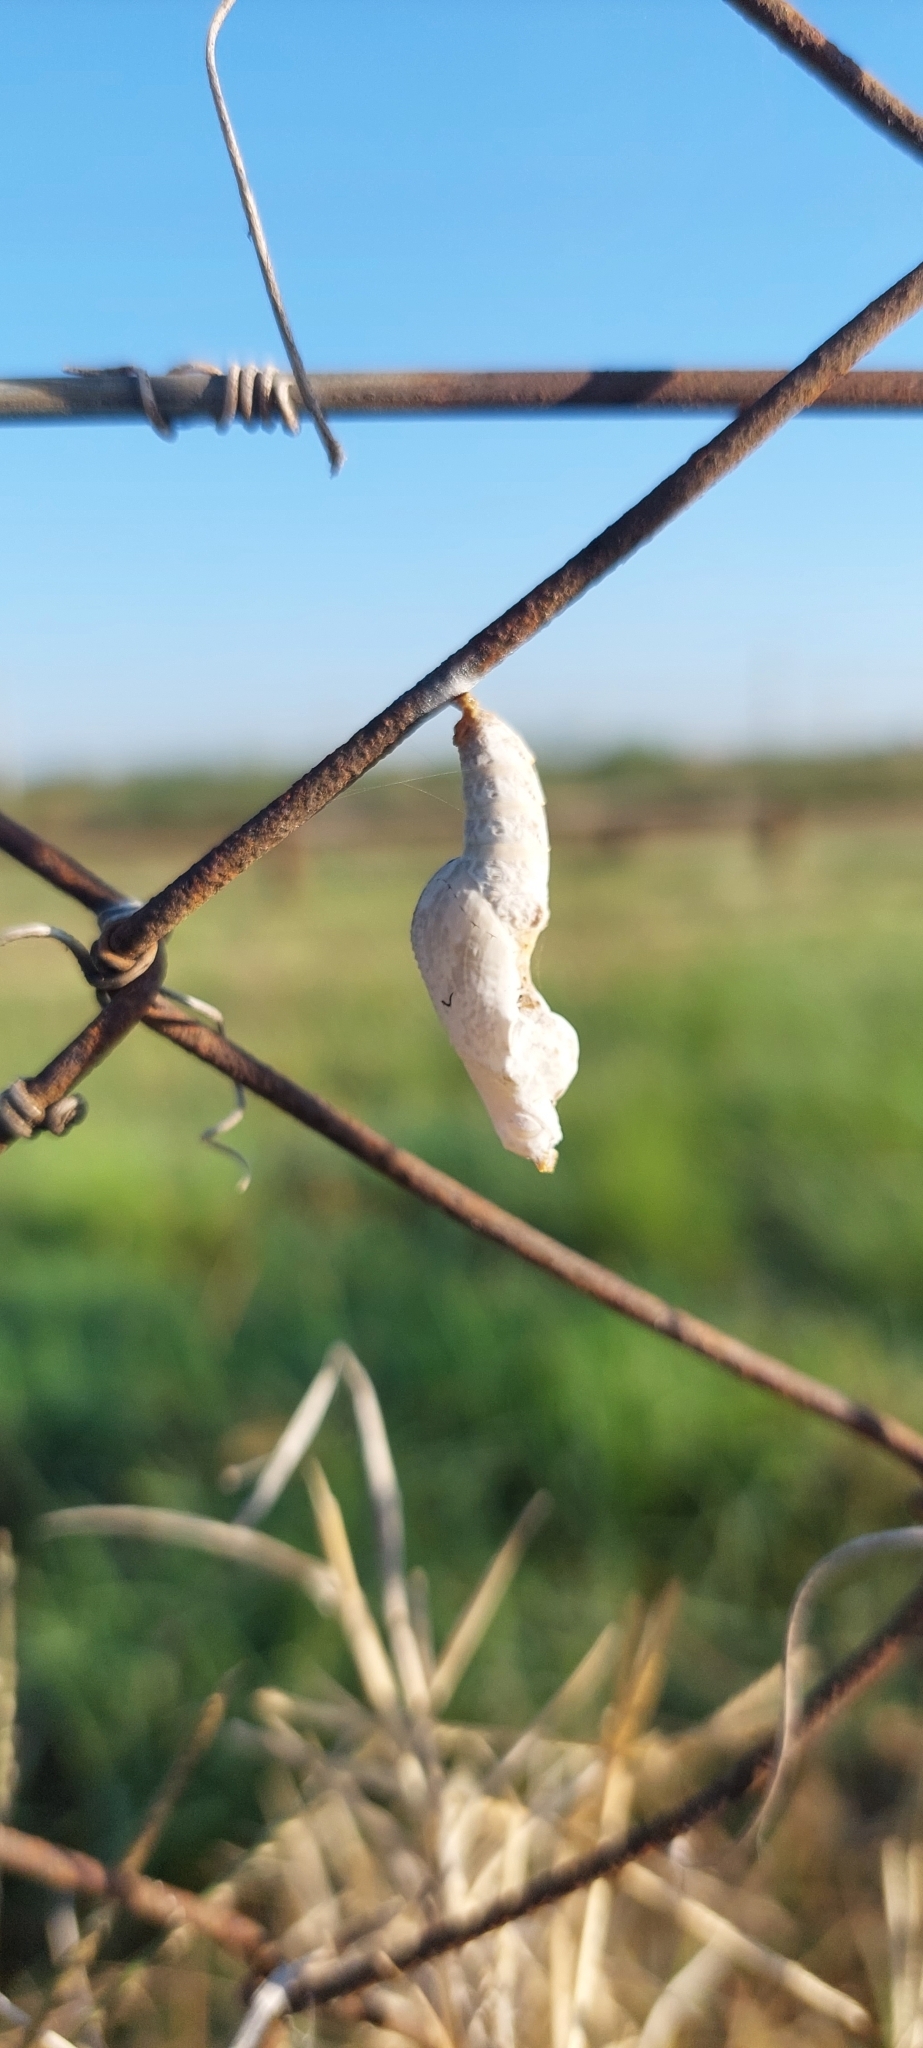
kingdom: Animalia
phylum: Arthropoda
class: Insecta
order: Lepidoptera
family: Nymphalidae
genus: Dione
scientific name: Dione vanillae
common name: Gulf fritillary
